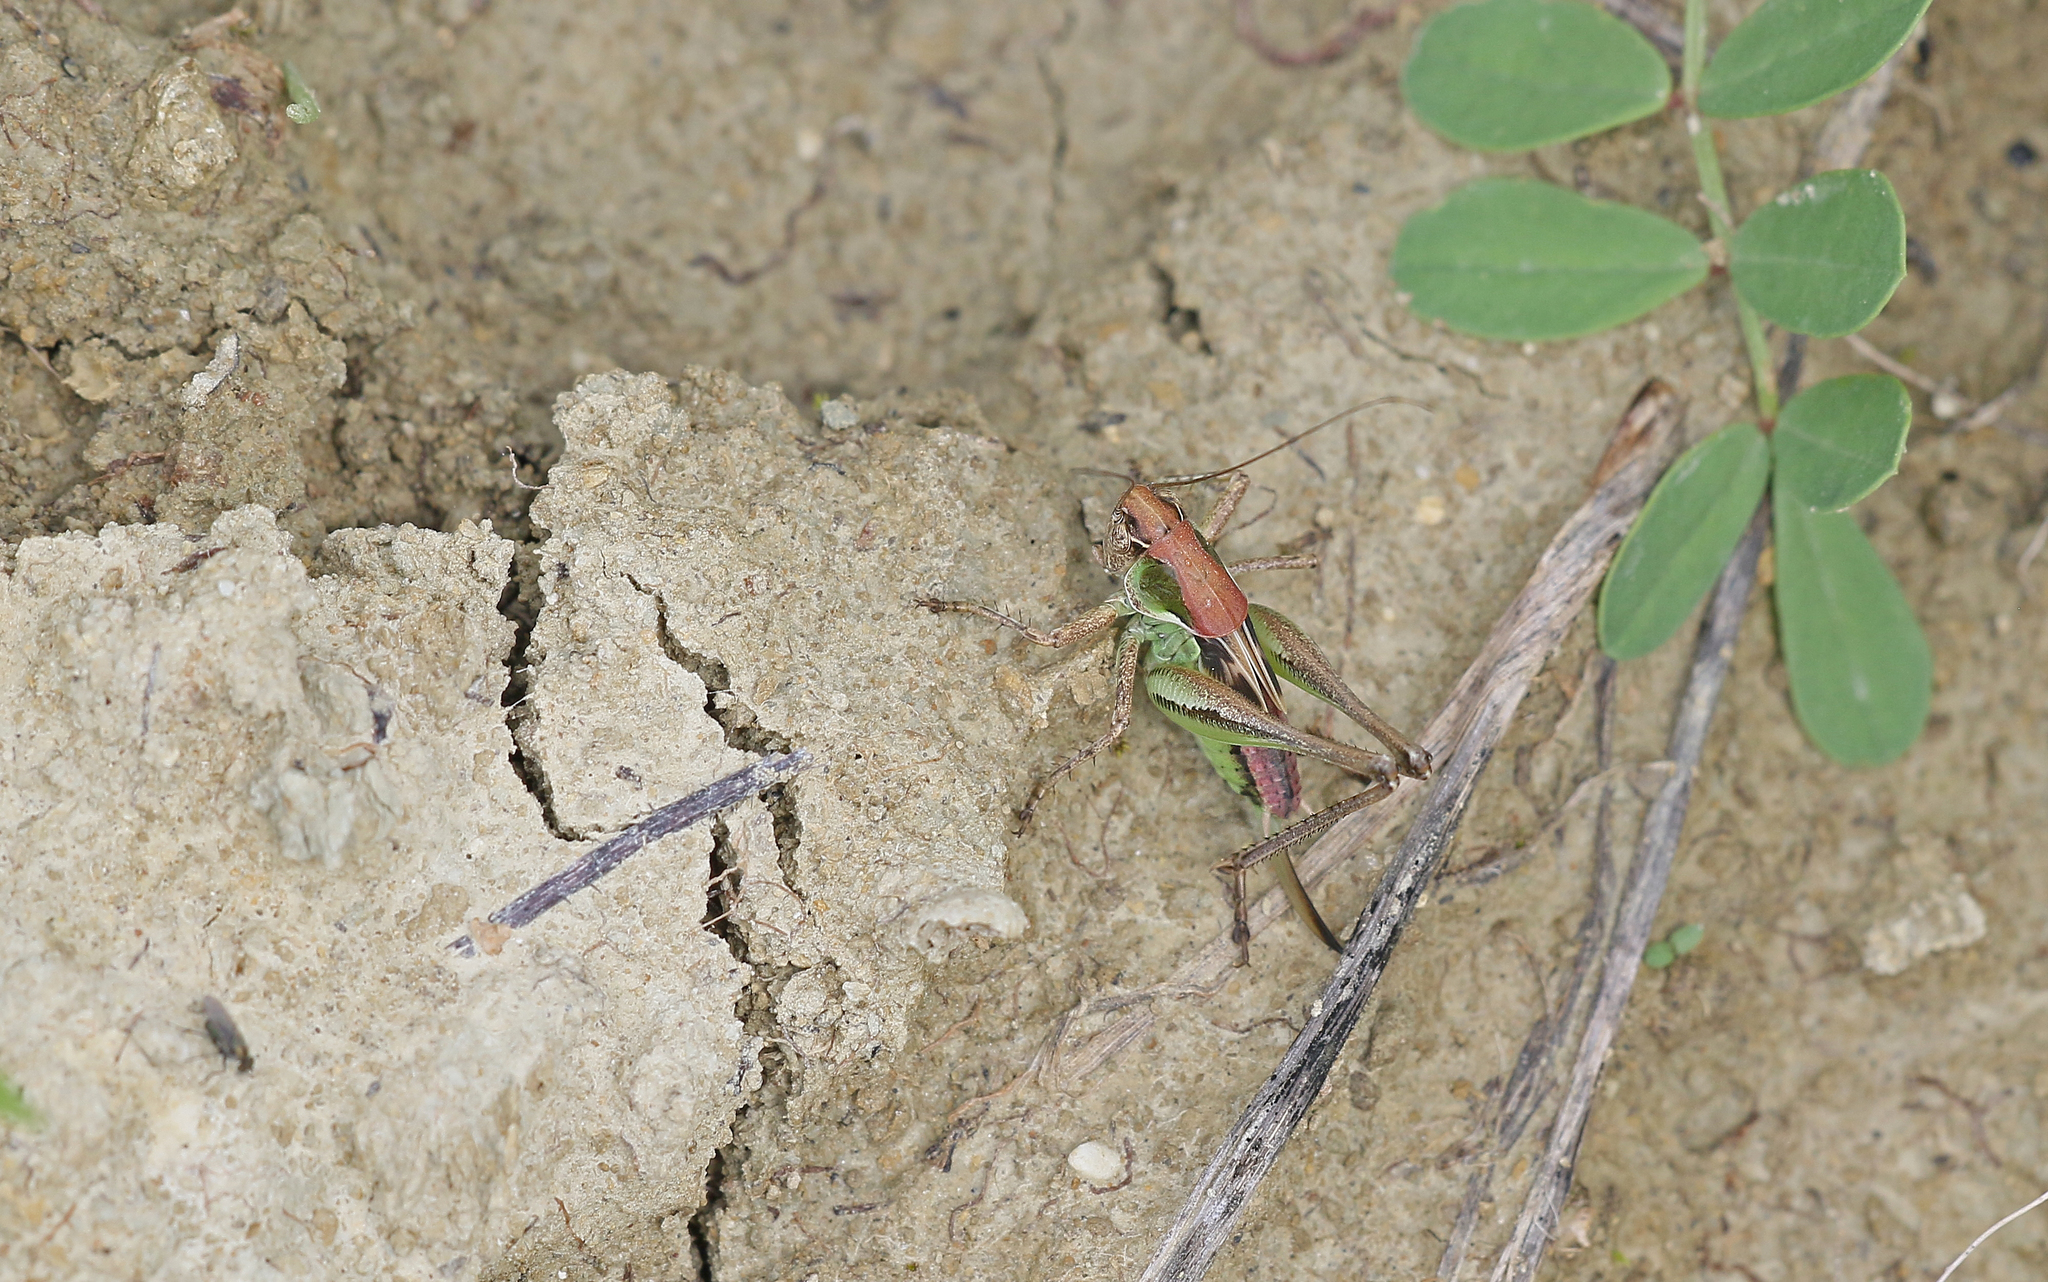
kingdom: Animalia
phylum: Arthropoda
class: Insecta
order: Orthoptera
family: Tettigoniidae
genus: Platycleis
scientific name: Platycleis albopunctata
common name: Grey bush-cricket
